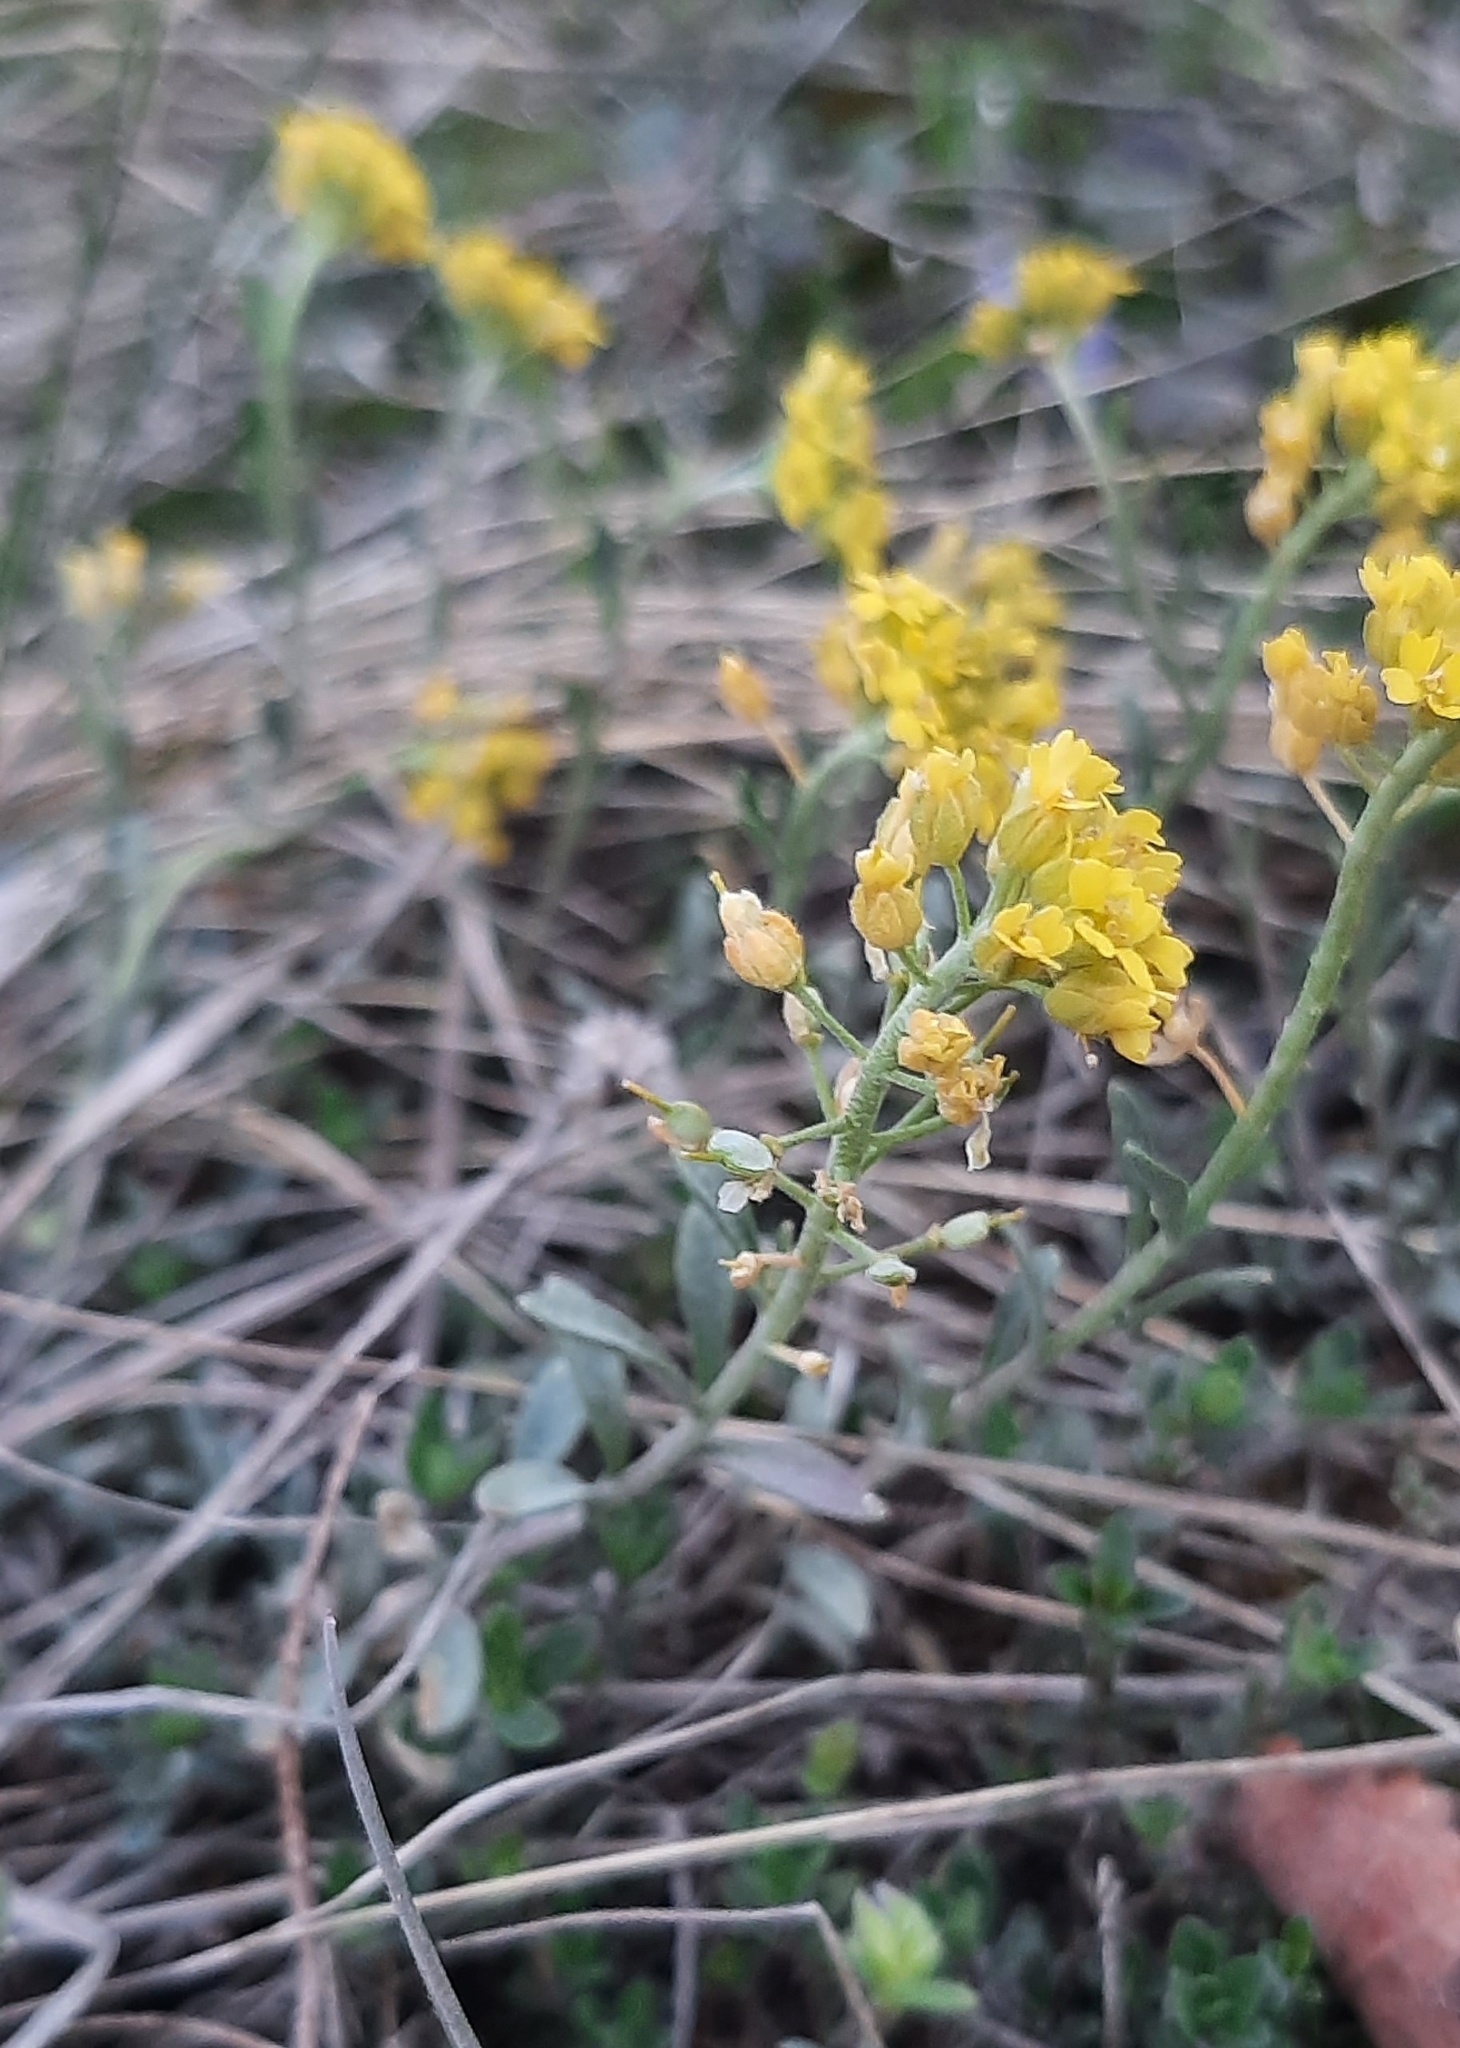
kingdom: Plantae
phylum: Tracheophyta
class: Magnoliopsida
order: Brassicales
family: Brassicaceae
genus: Alyssum
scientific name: Alyssum gmelinii
